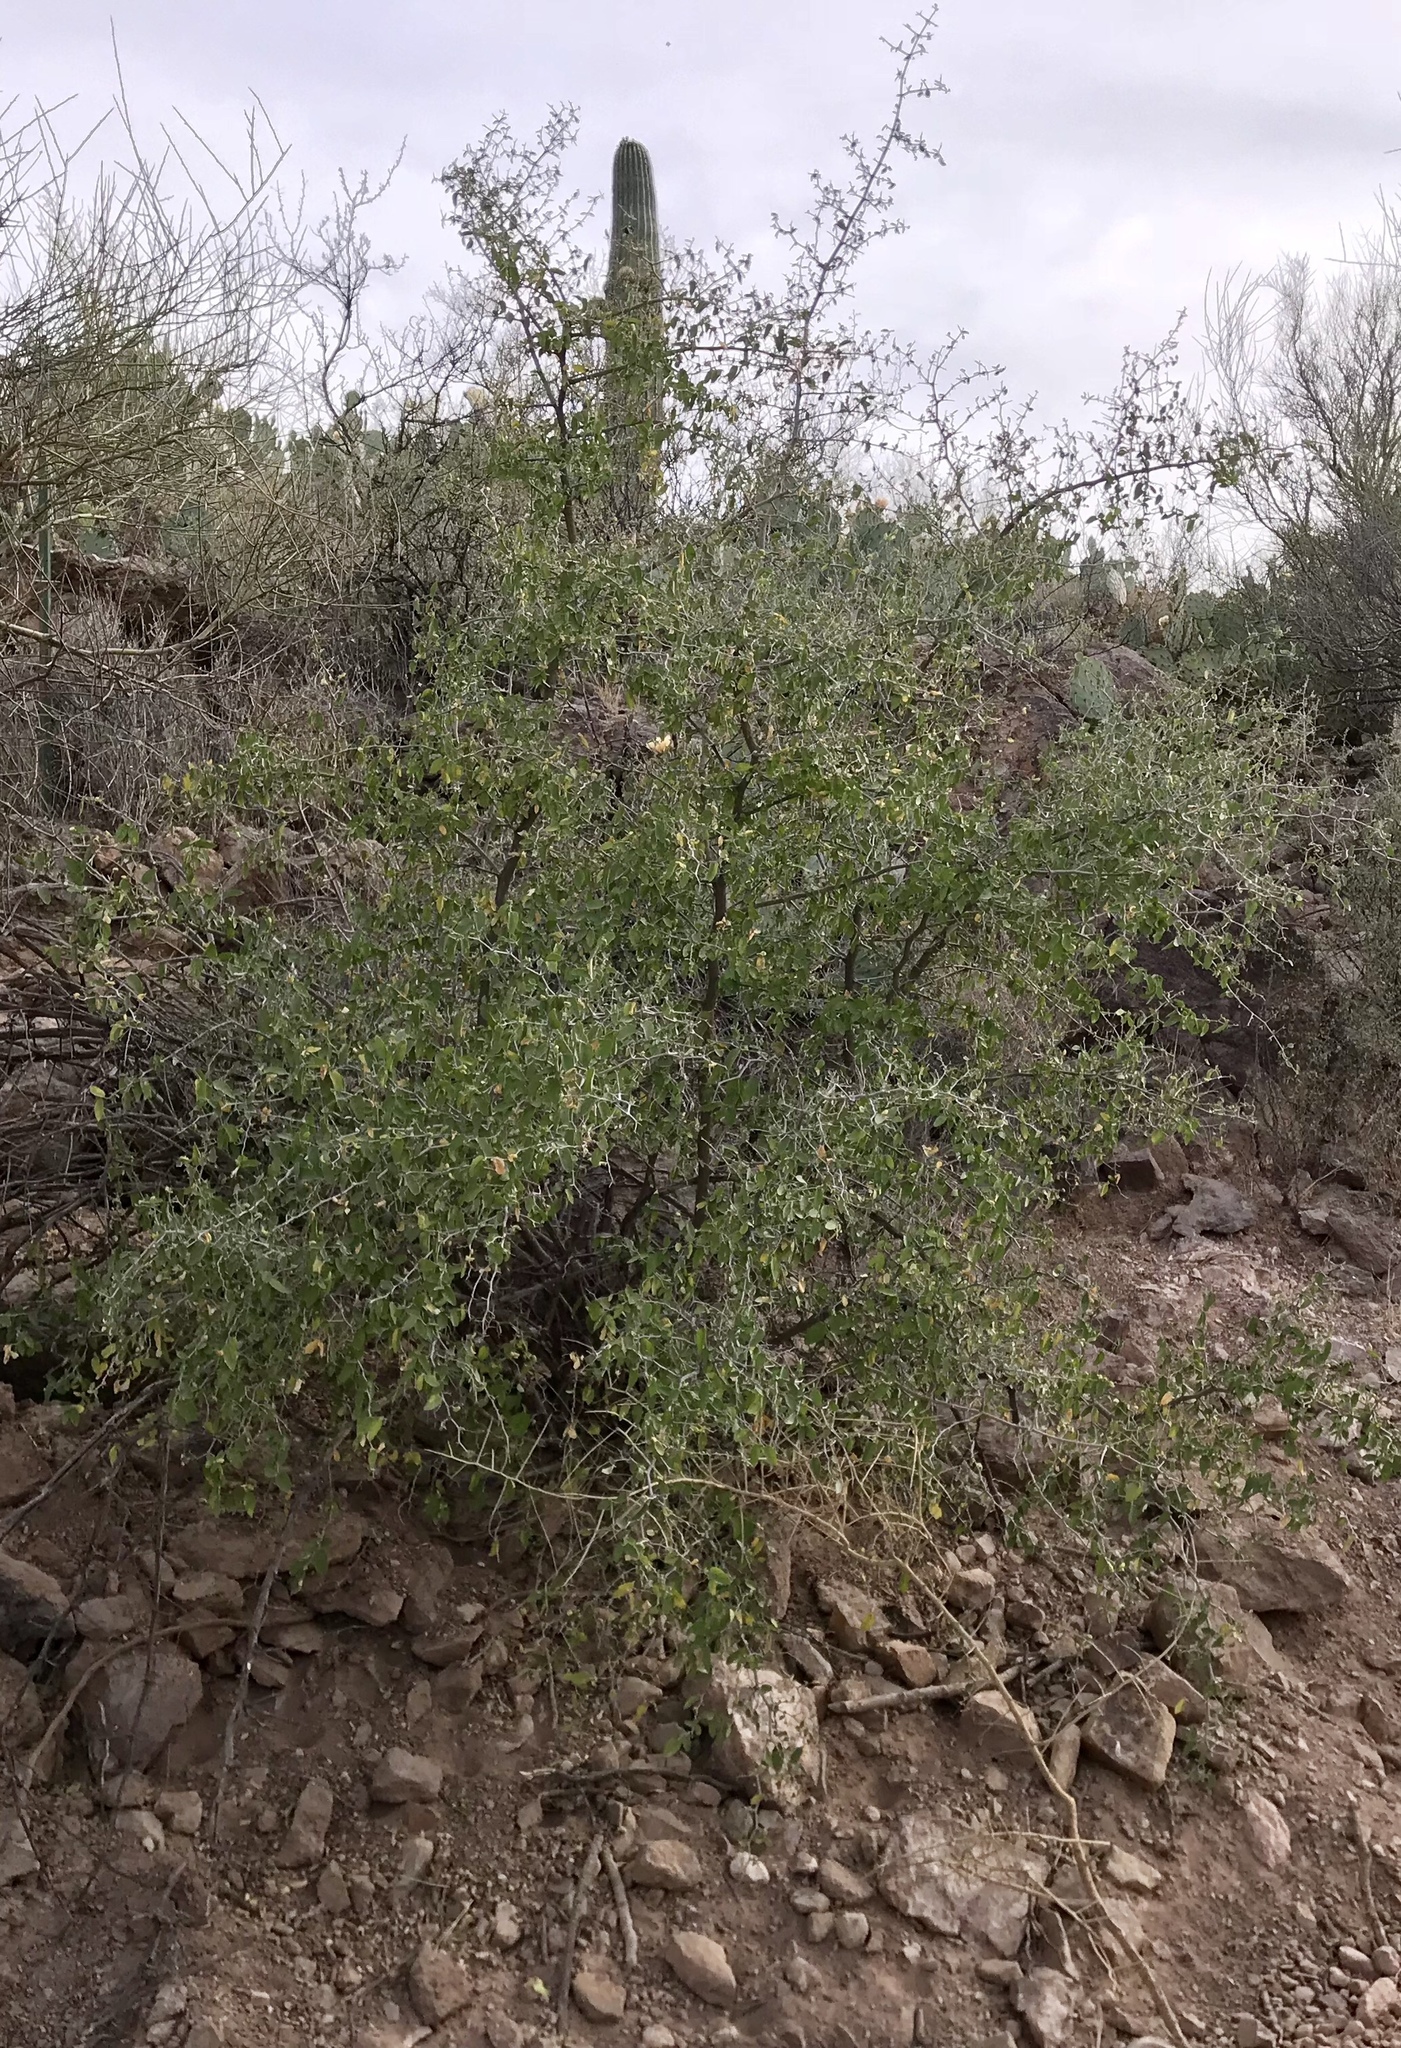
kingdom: Plantae
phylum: Tracheophyta
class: Magnoliopsida
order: Rosales
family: Cannabaceae
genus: Celtis
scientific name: Celtis pallida
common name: Desert hackberry
